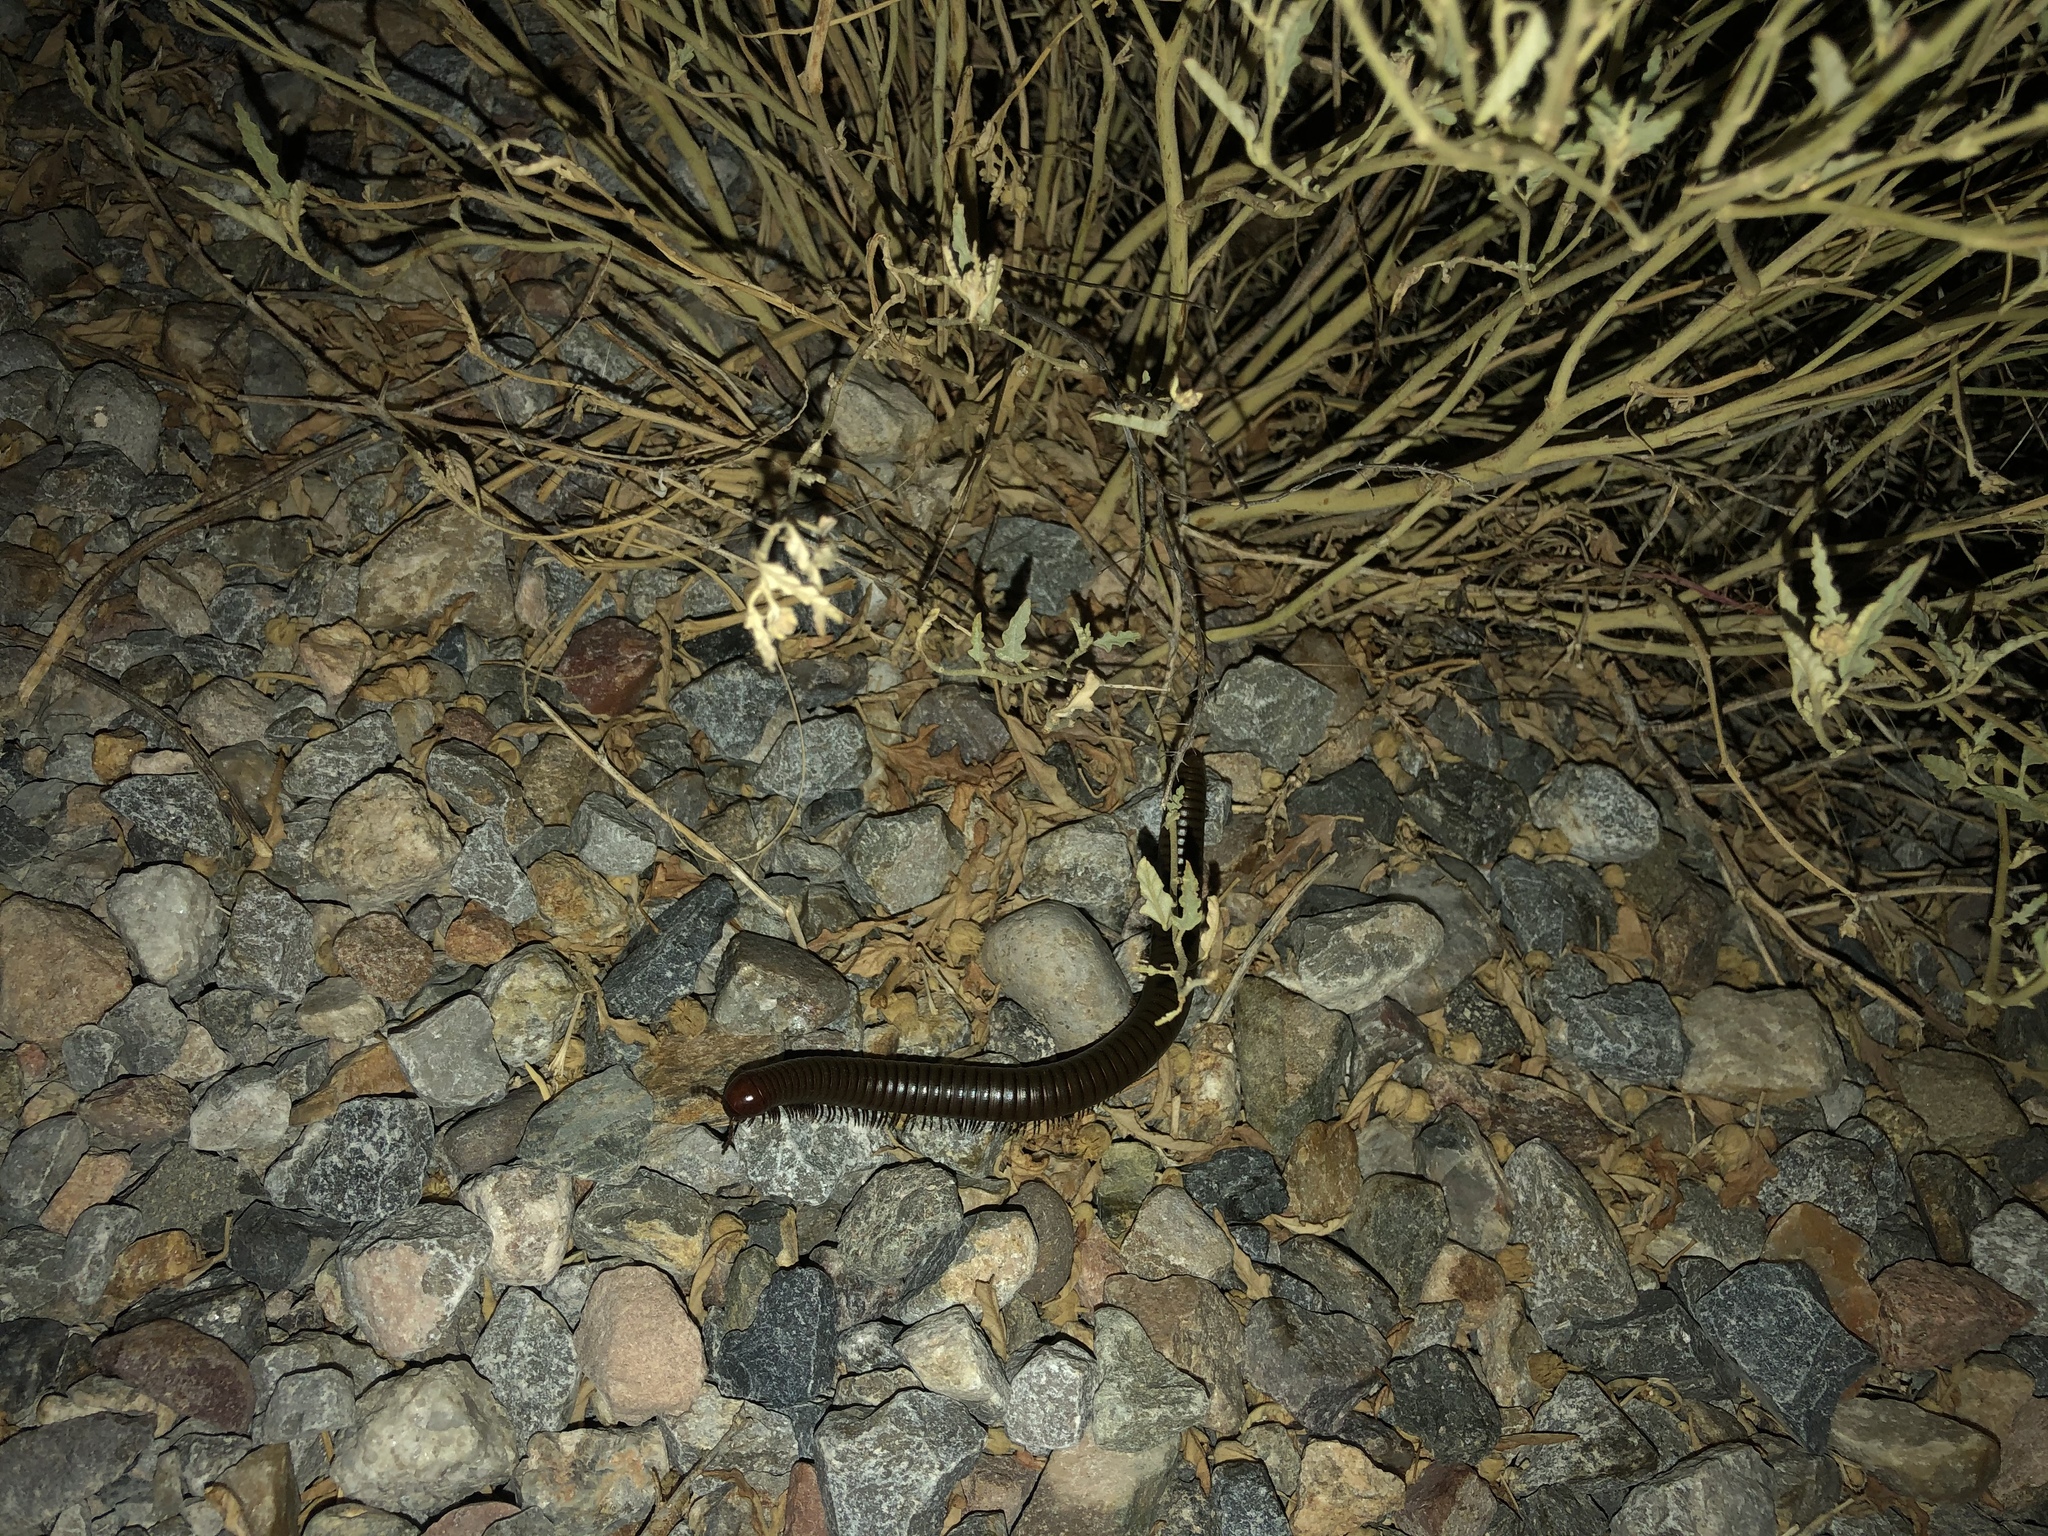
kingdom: Animalia
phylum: Arthropoda
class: Diplopoda
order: Spirostreptida
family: Spirostreptidae
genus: Orthoporus
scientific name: Orthoporus ornatus
